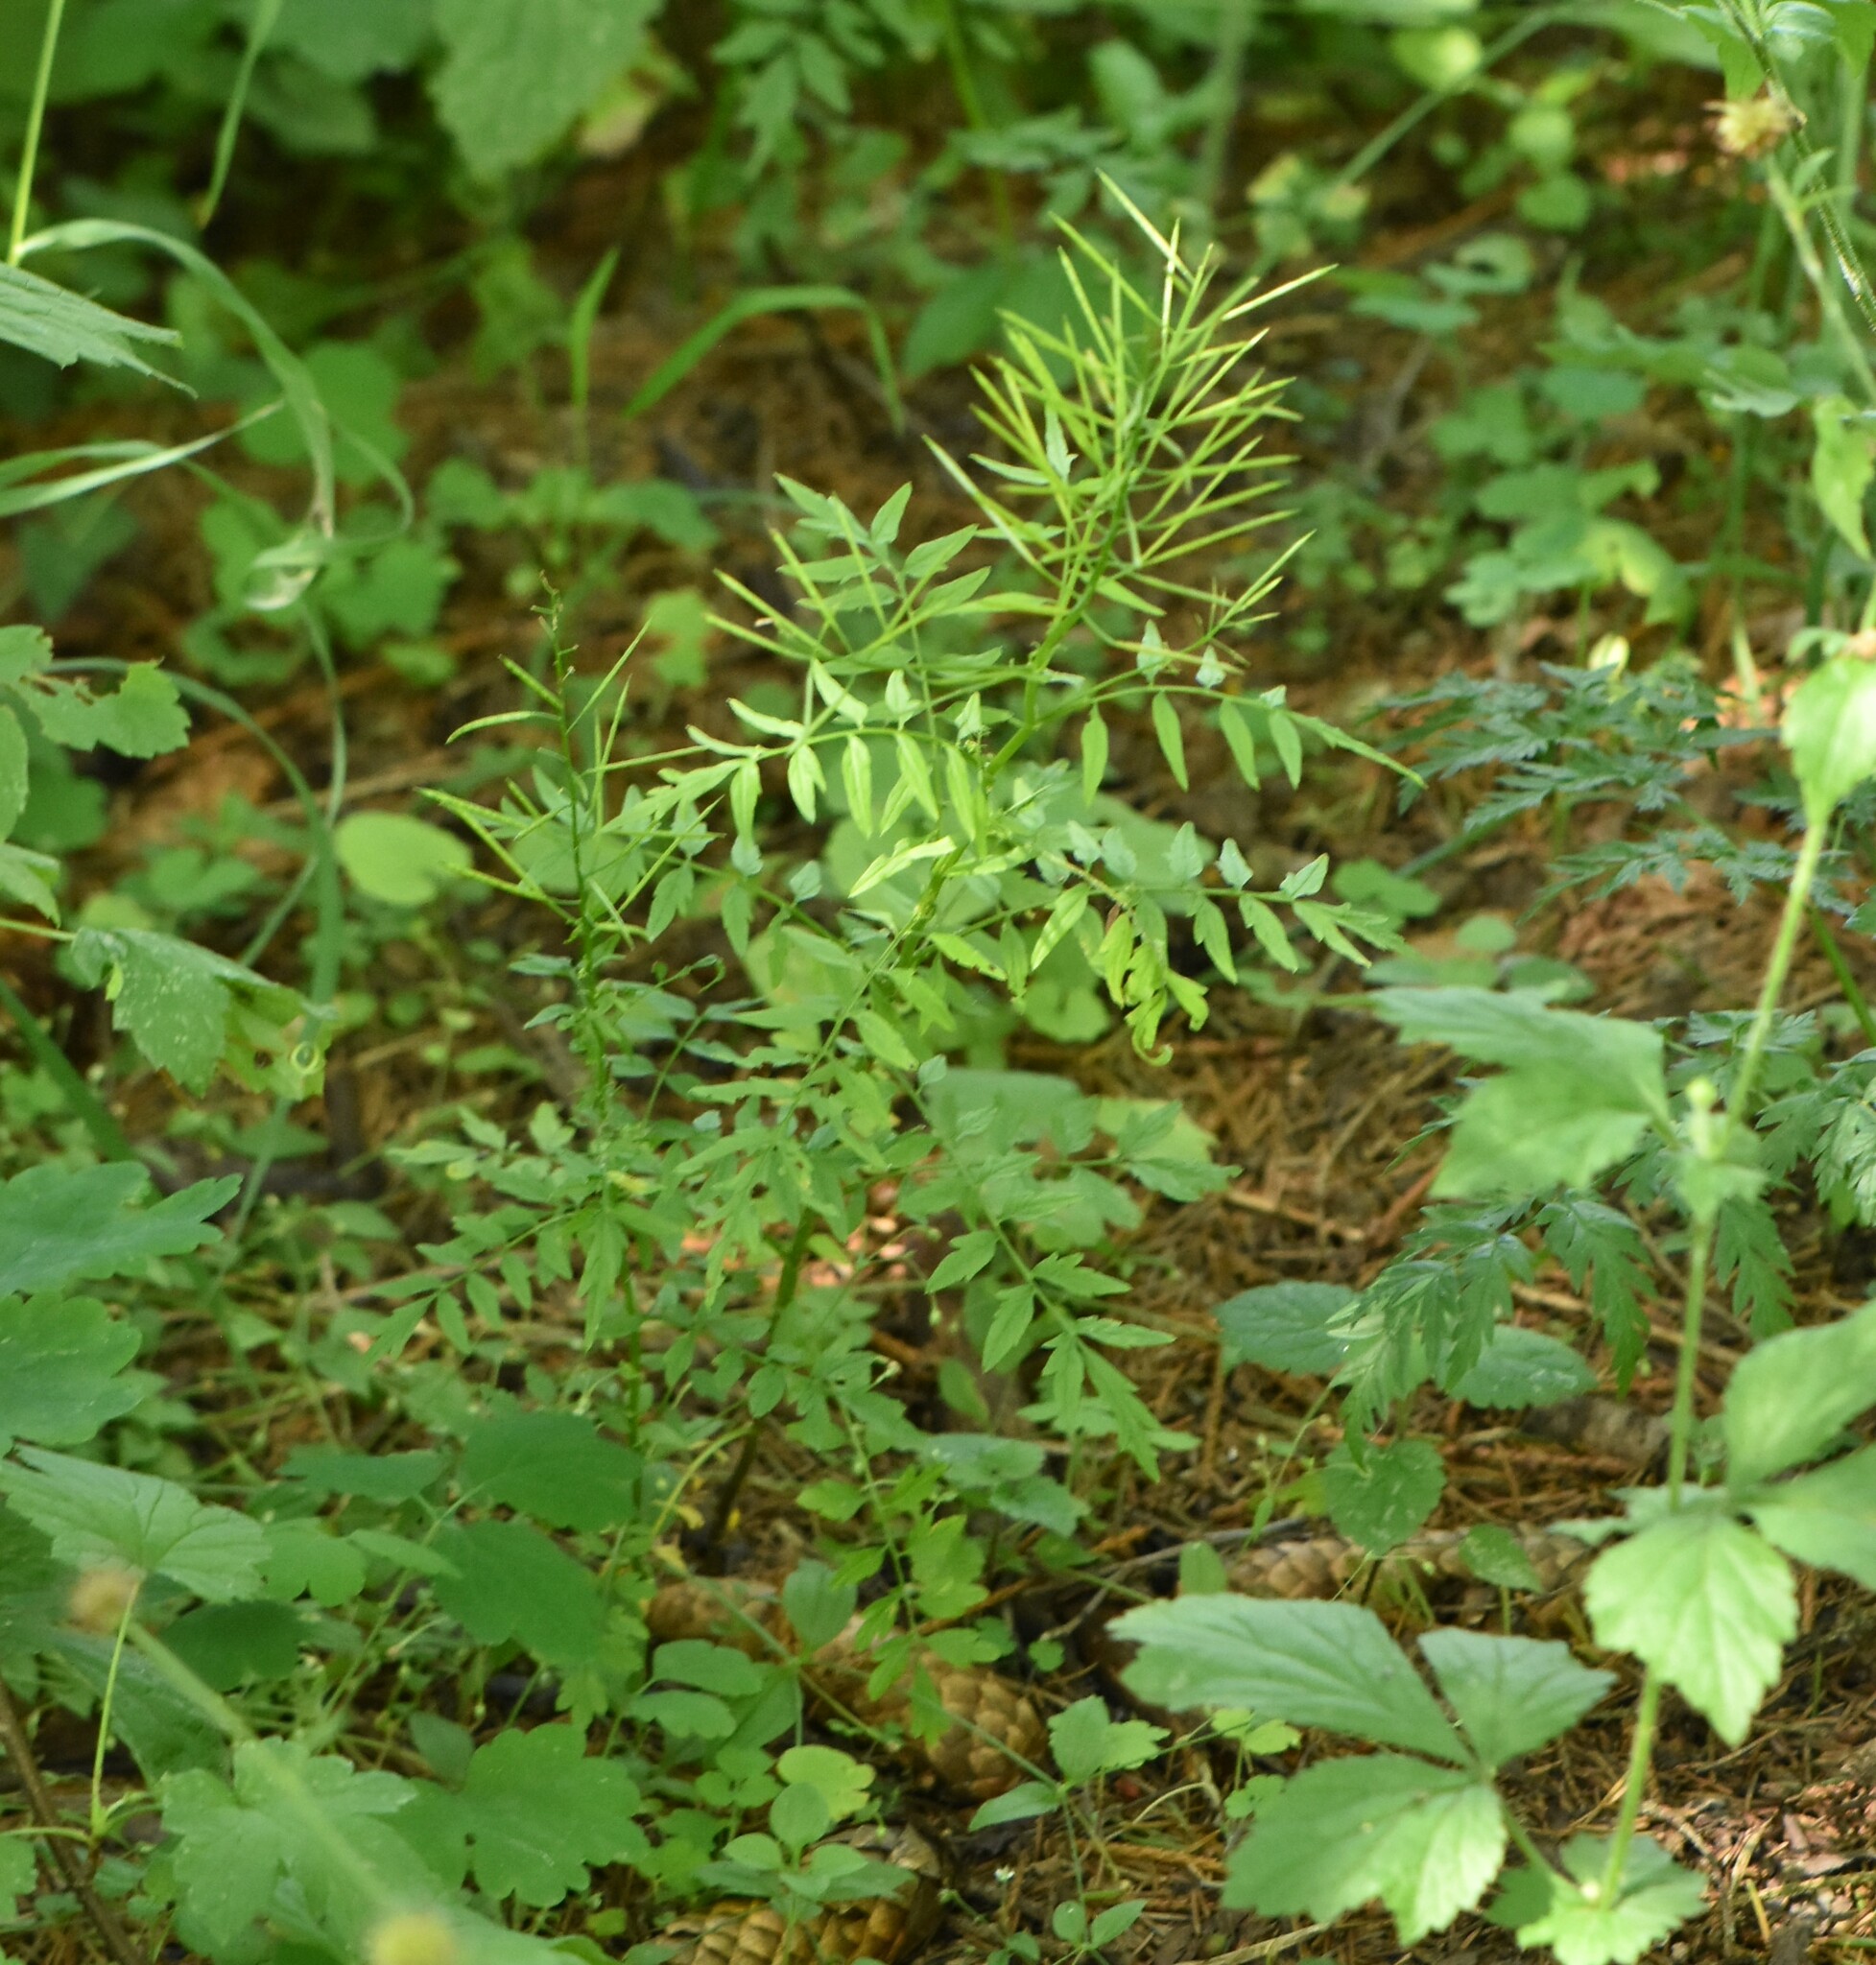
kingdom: Plantae
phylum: Tracheophyta
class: Magnoliopsida
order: Brassicales
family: Brassicaceae
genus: Cardamine
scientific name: Cardamine impatiens
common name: Narrow-leaved bitter-cress
